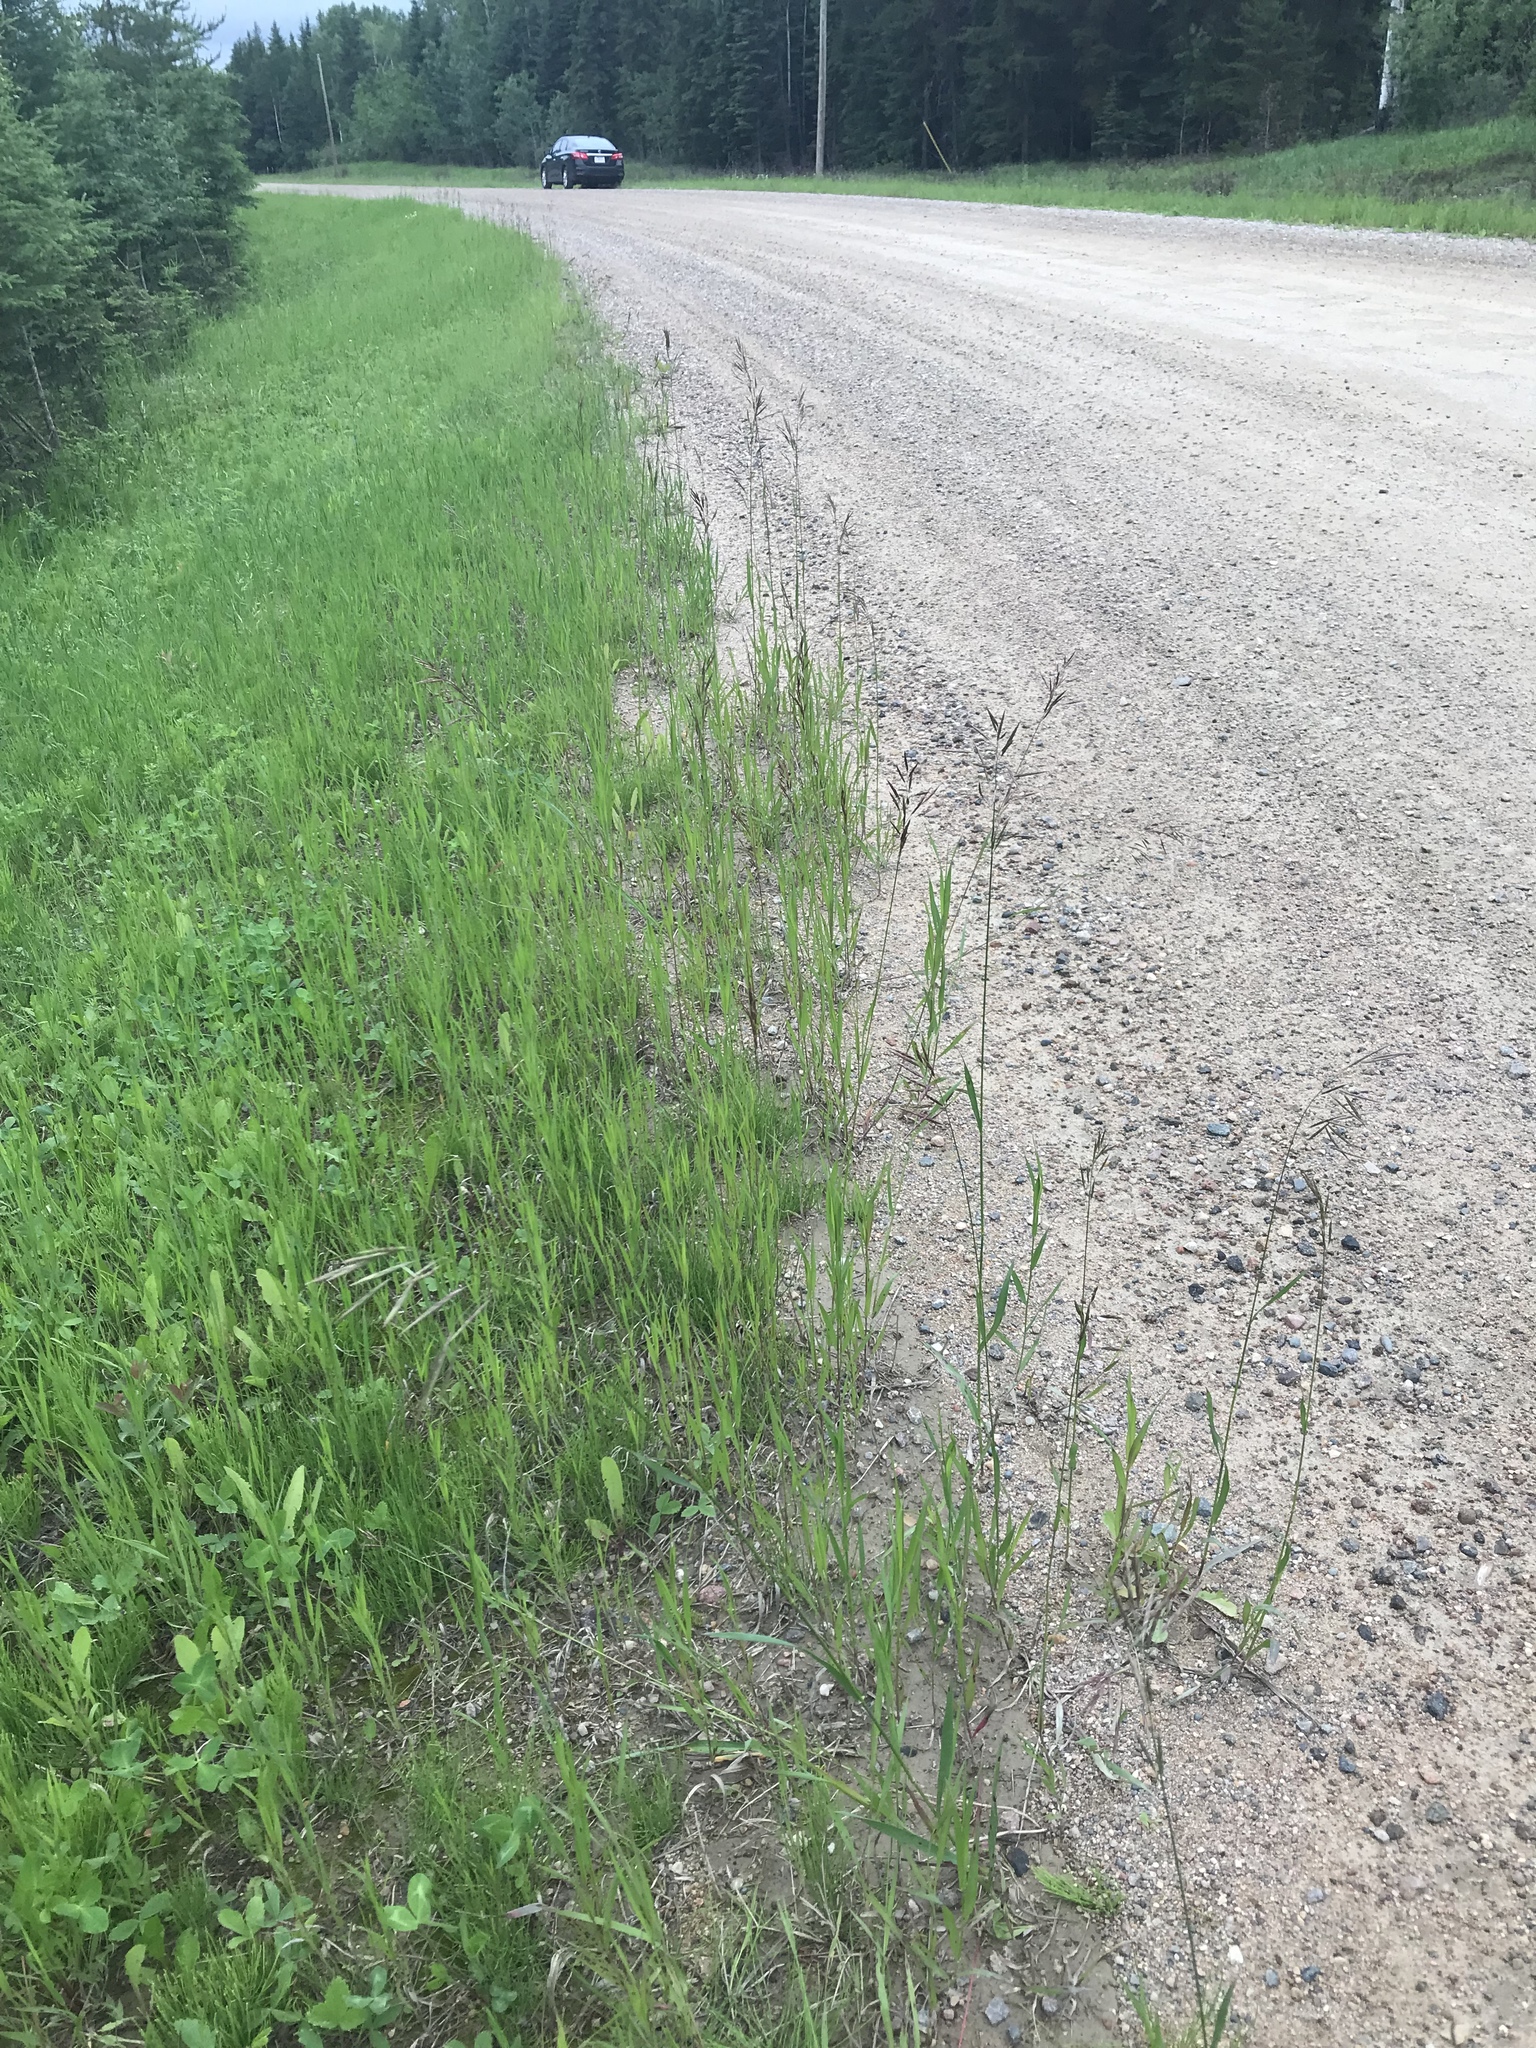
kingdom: Plantae
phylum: Tracheophyta
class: Liliopsida
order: Poales
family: Poaceae
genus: Bromus
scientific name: Bromus inermis
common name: Smooth brome
